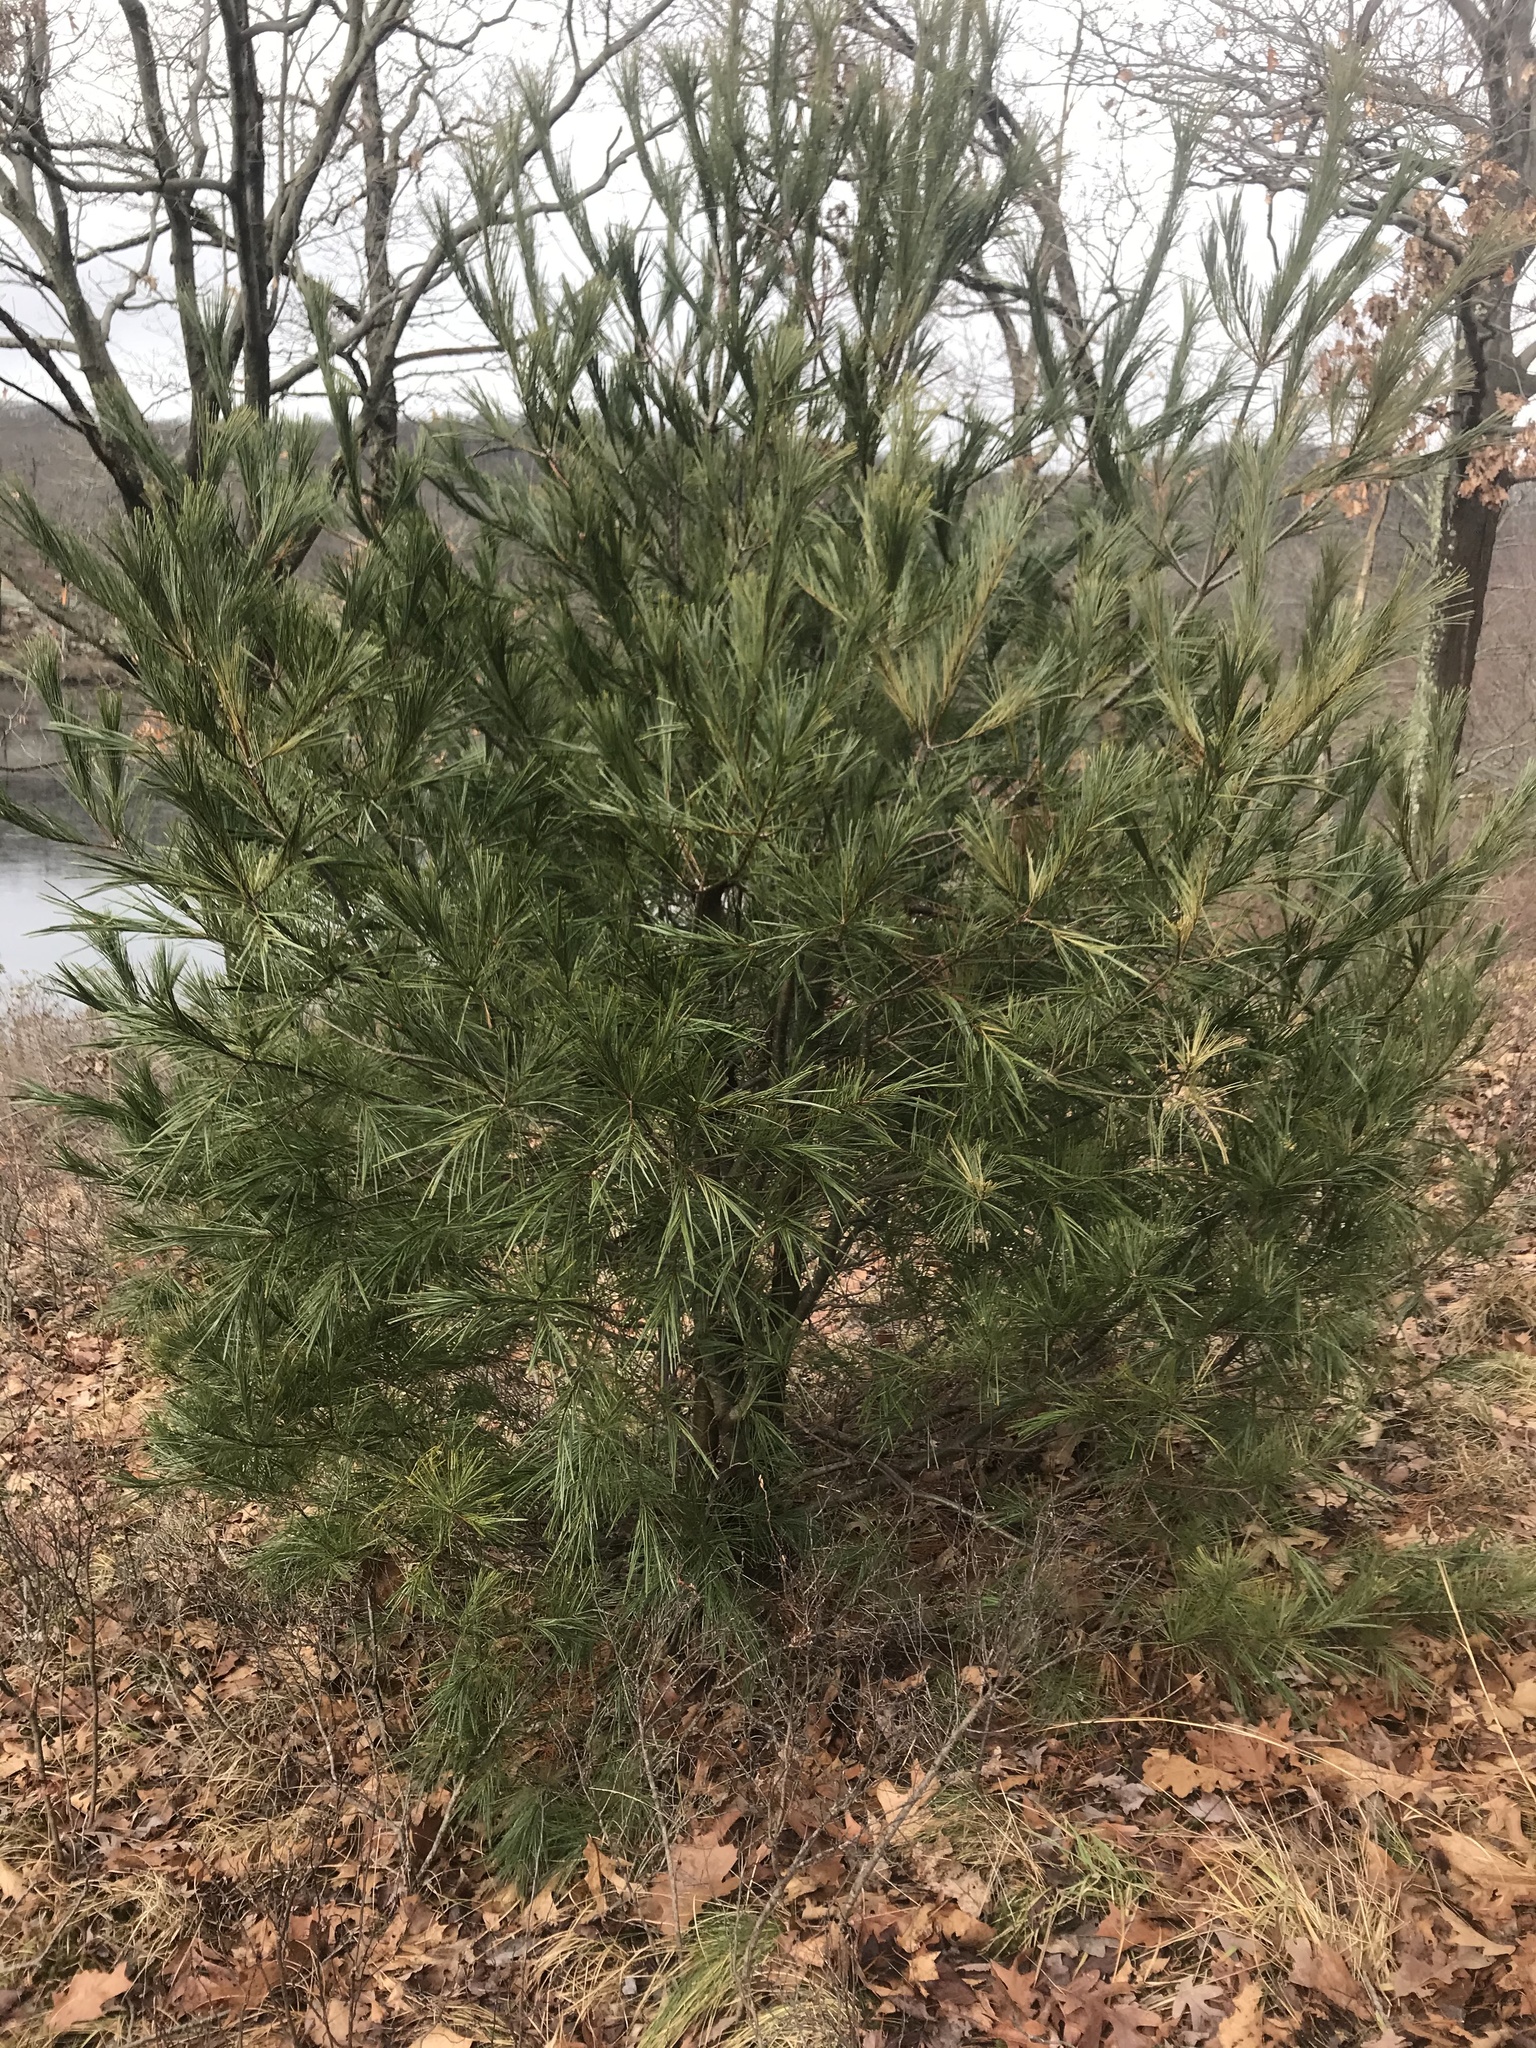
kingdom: Plantae
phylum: Tracheophyta
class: Pinopsida
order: Pinales
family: Pinaceae
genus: Pinus
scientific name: Pinus strobus
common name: Weymouth pine
